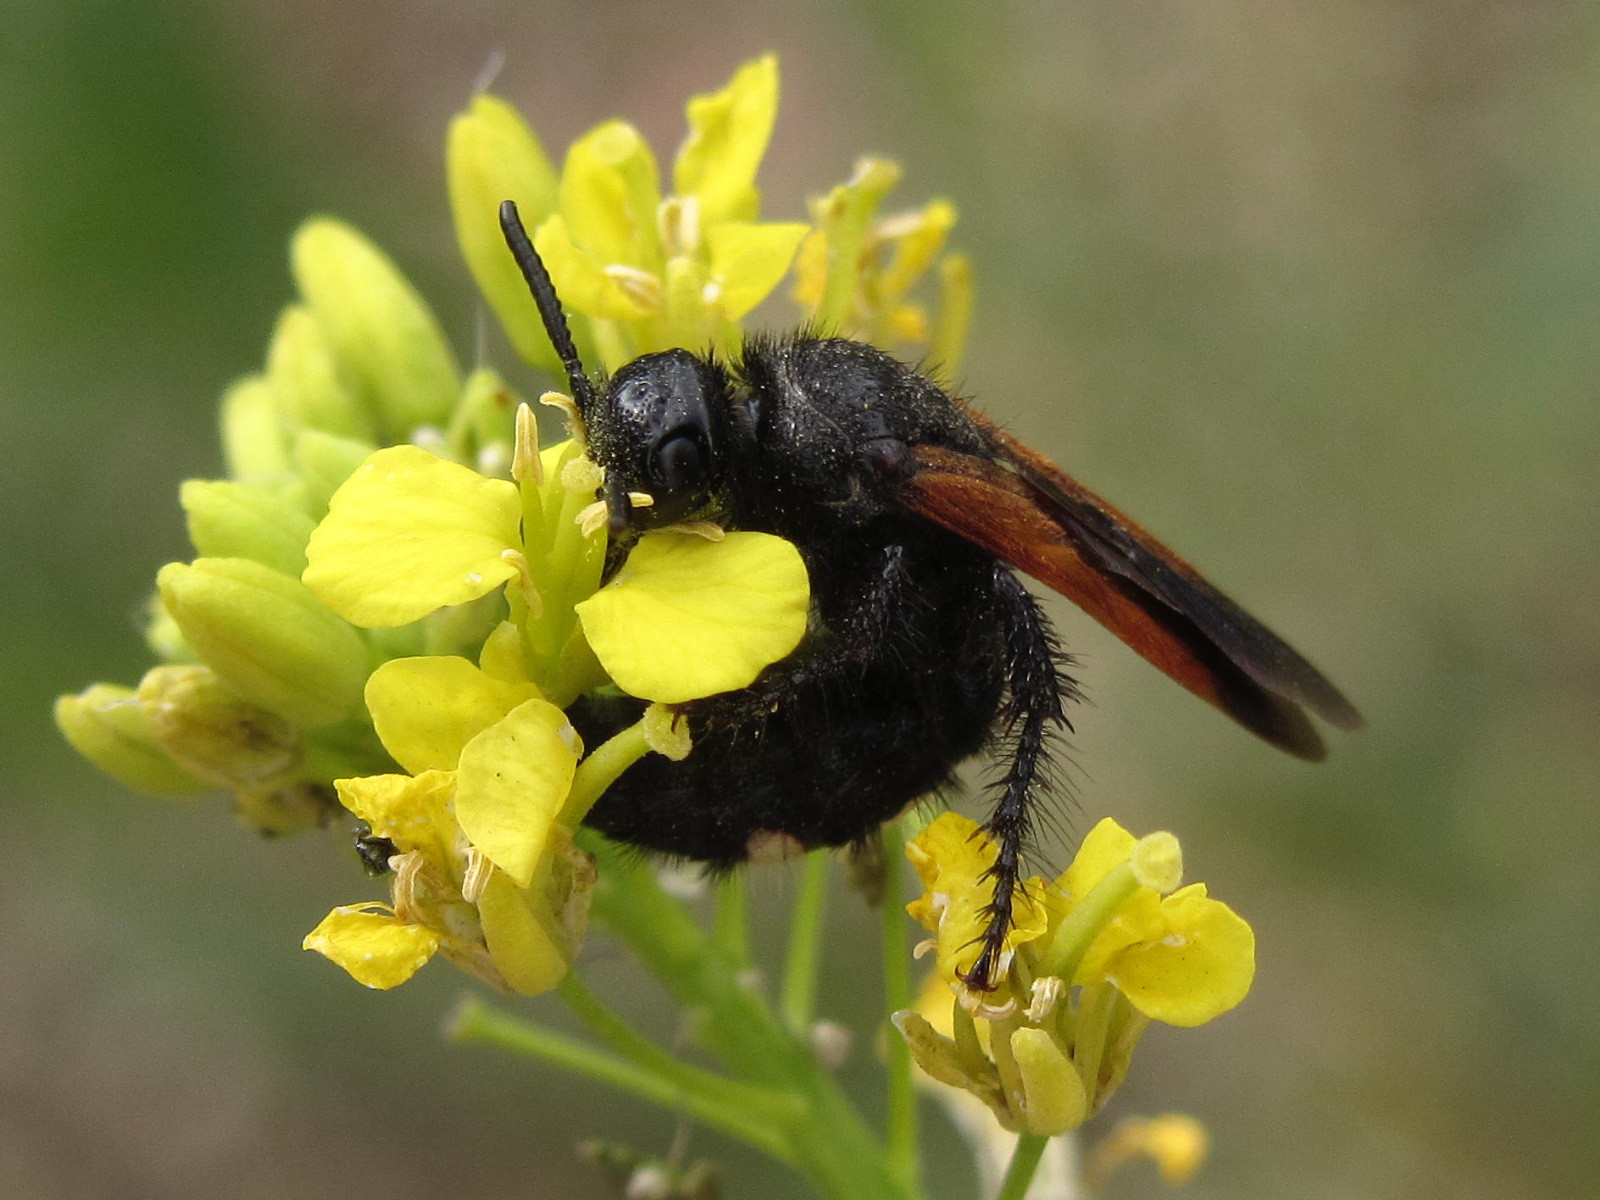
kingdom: Animalia
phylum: Arthropoda
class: Insecta
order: Hymenoptera
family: Vespidae
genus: Vespa
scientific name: Vespa sexmaculata
